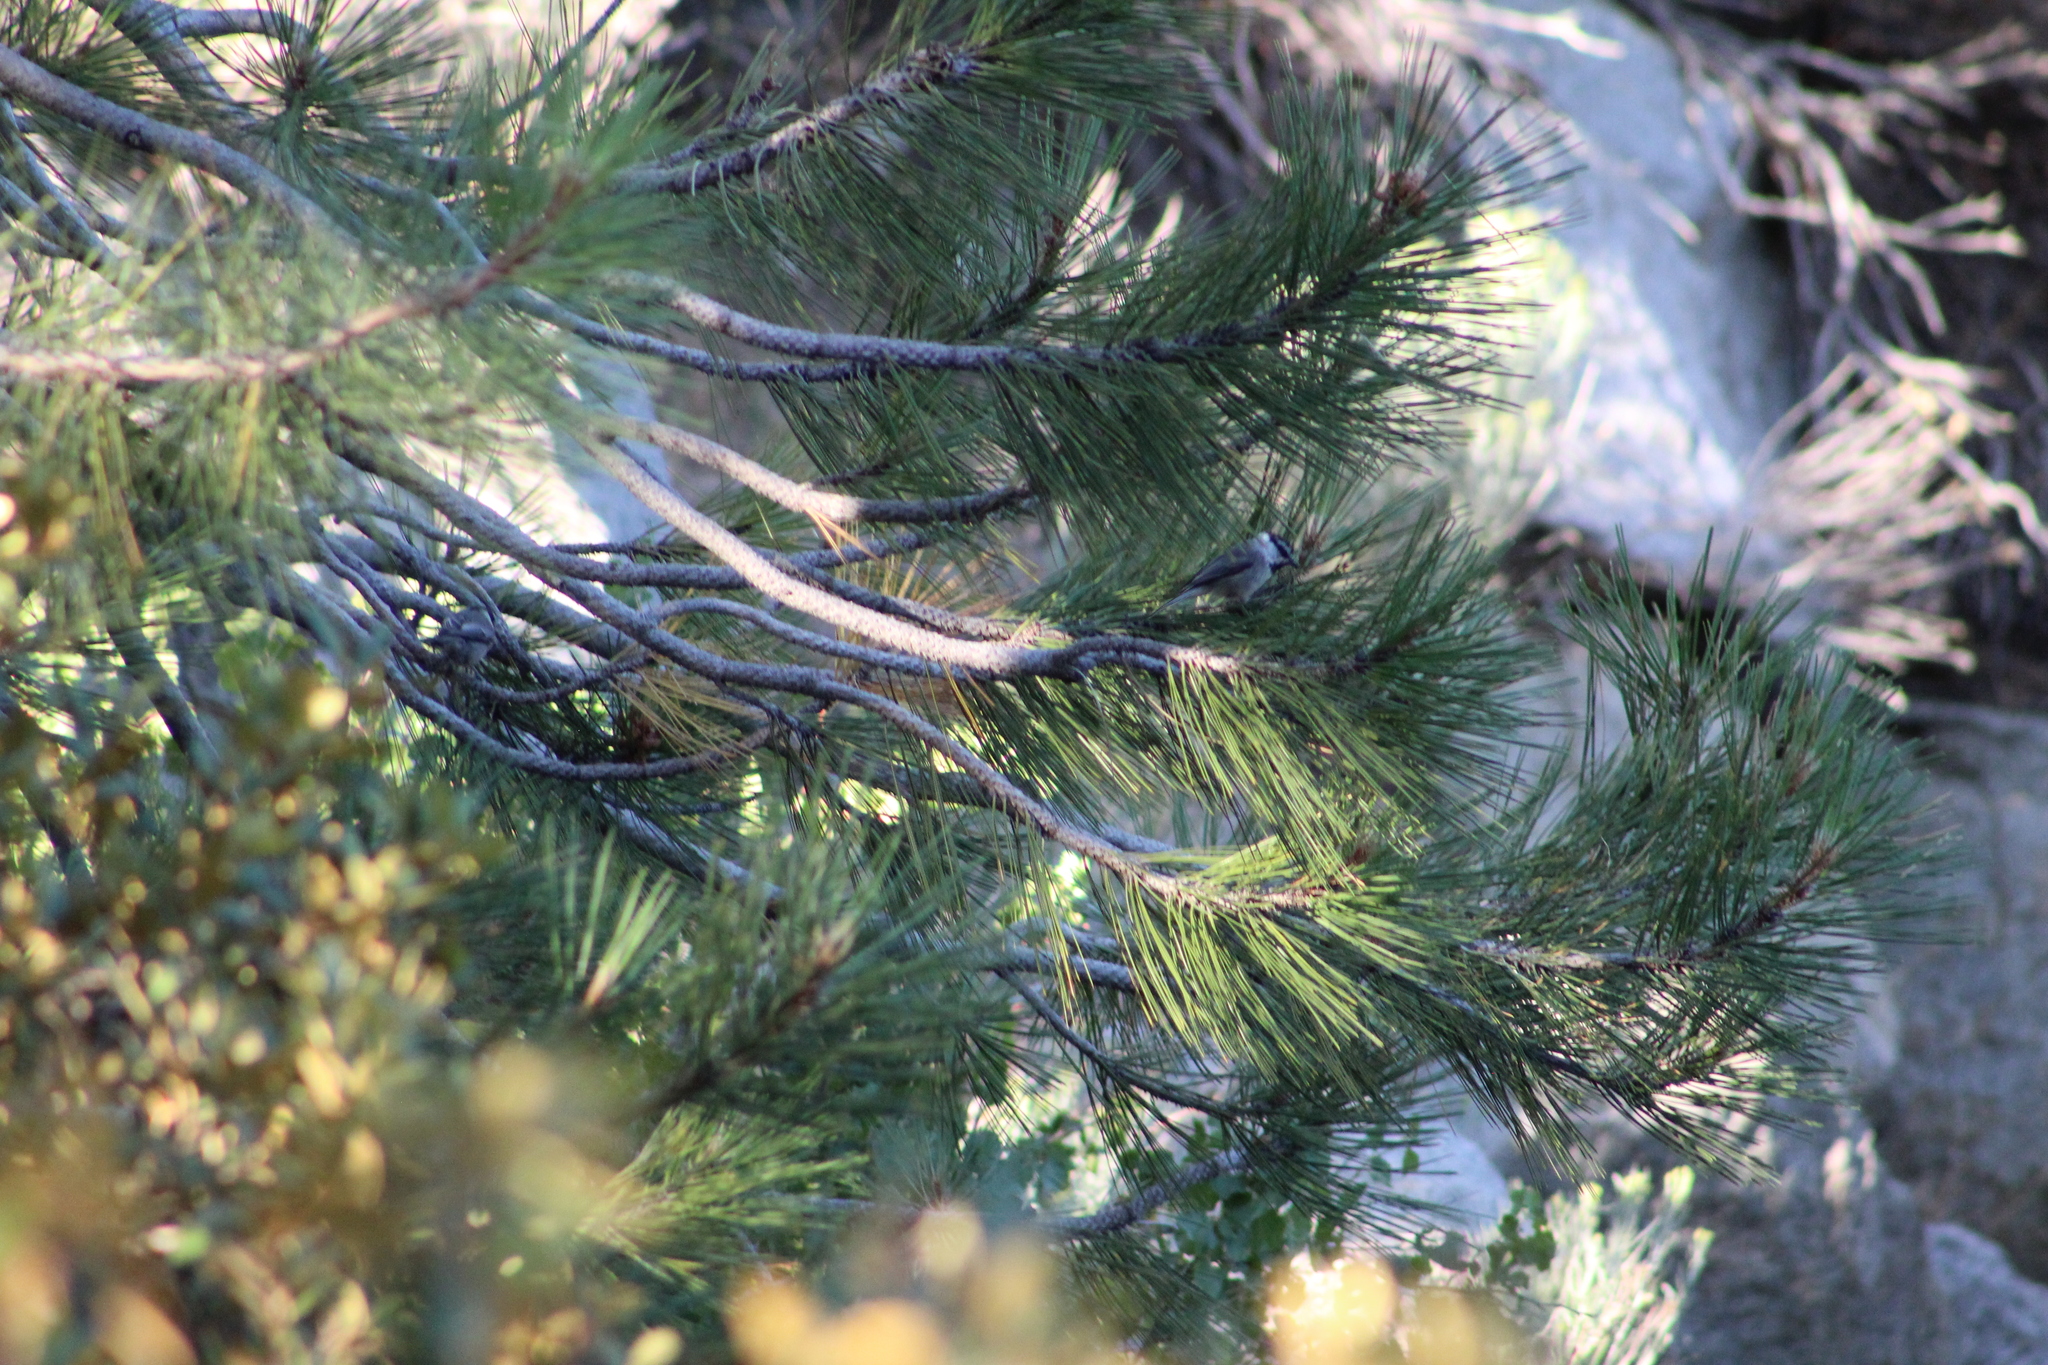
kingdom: Animalia
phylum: Chordata
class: Aves
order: Passeriformes
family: Paridae
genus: Poecile
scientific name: Poecile gambeli
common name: Mountain chickadee
